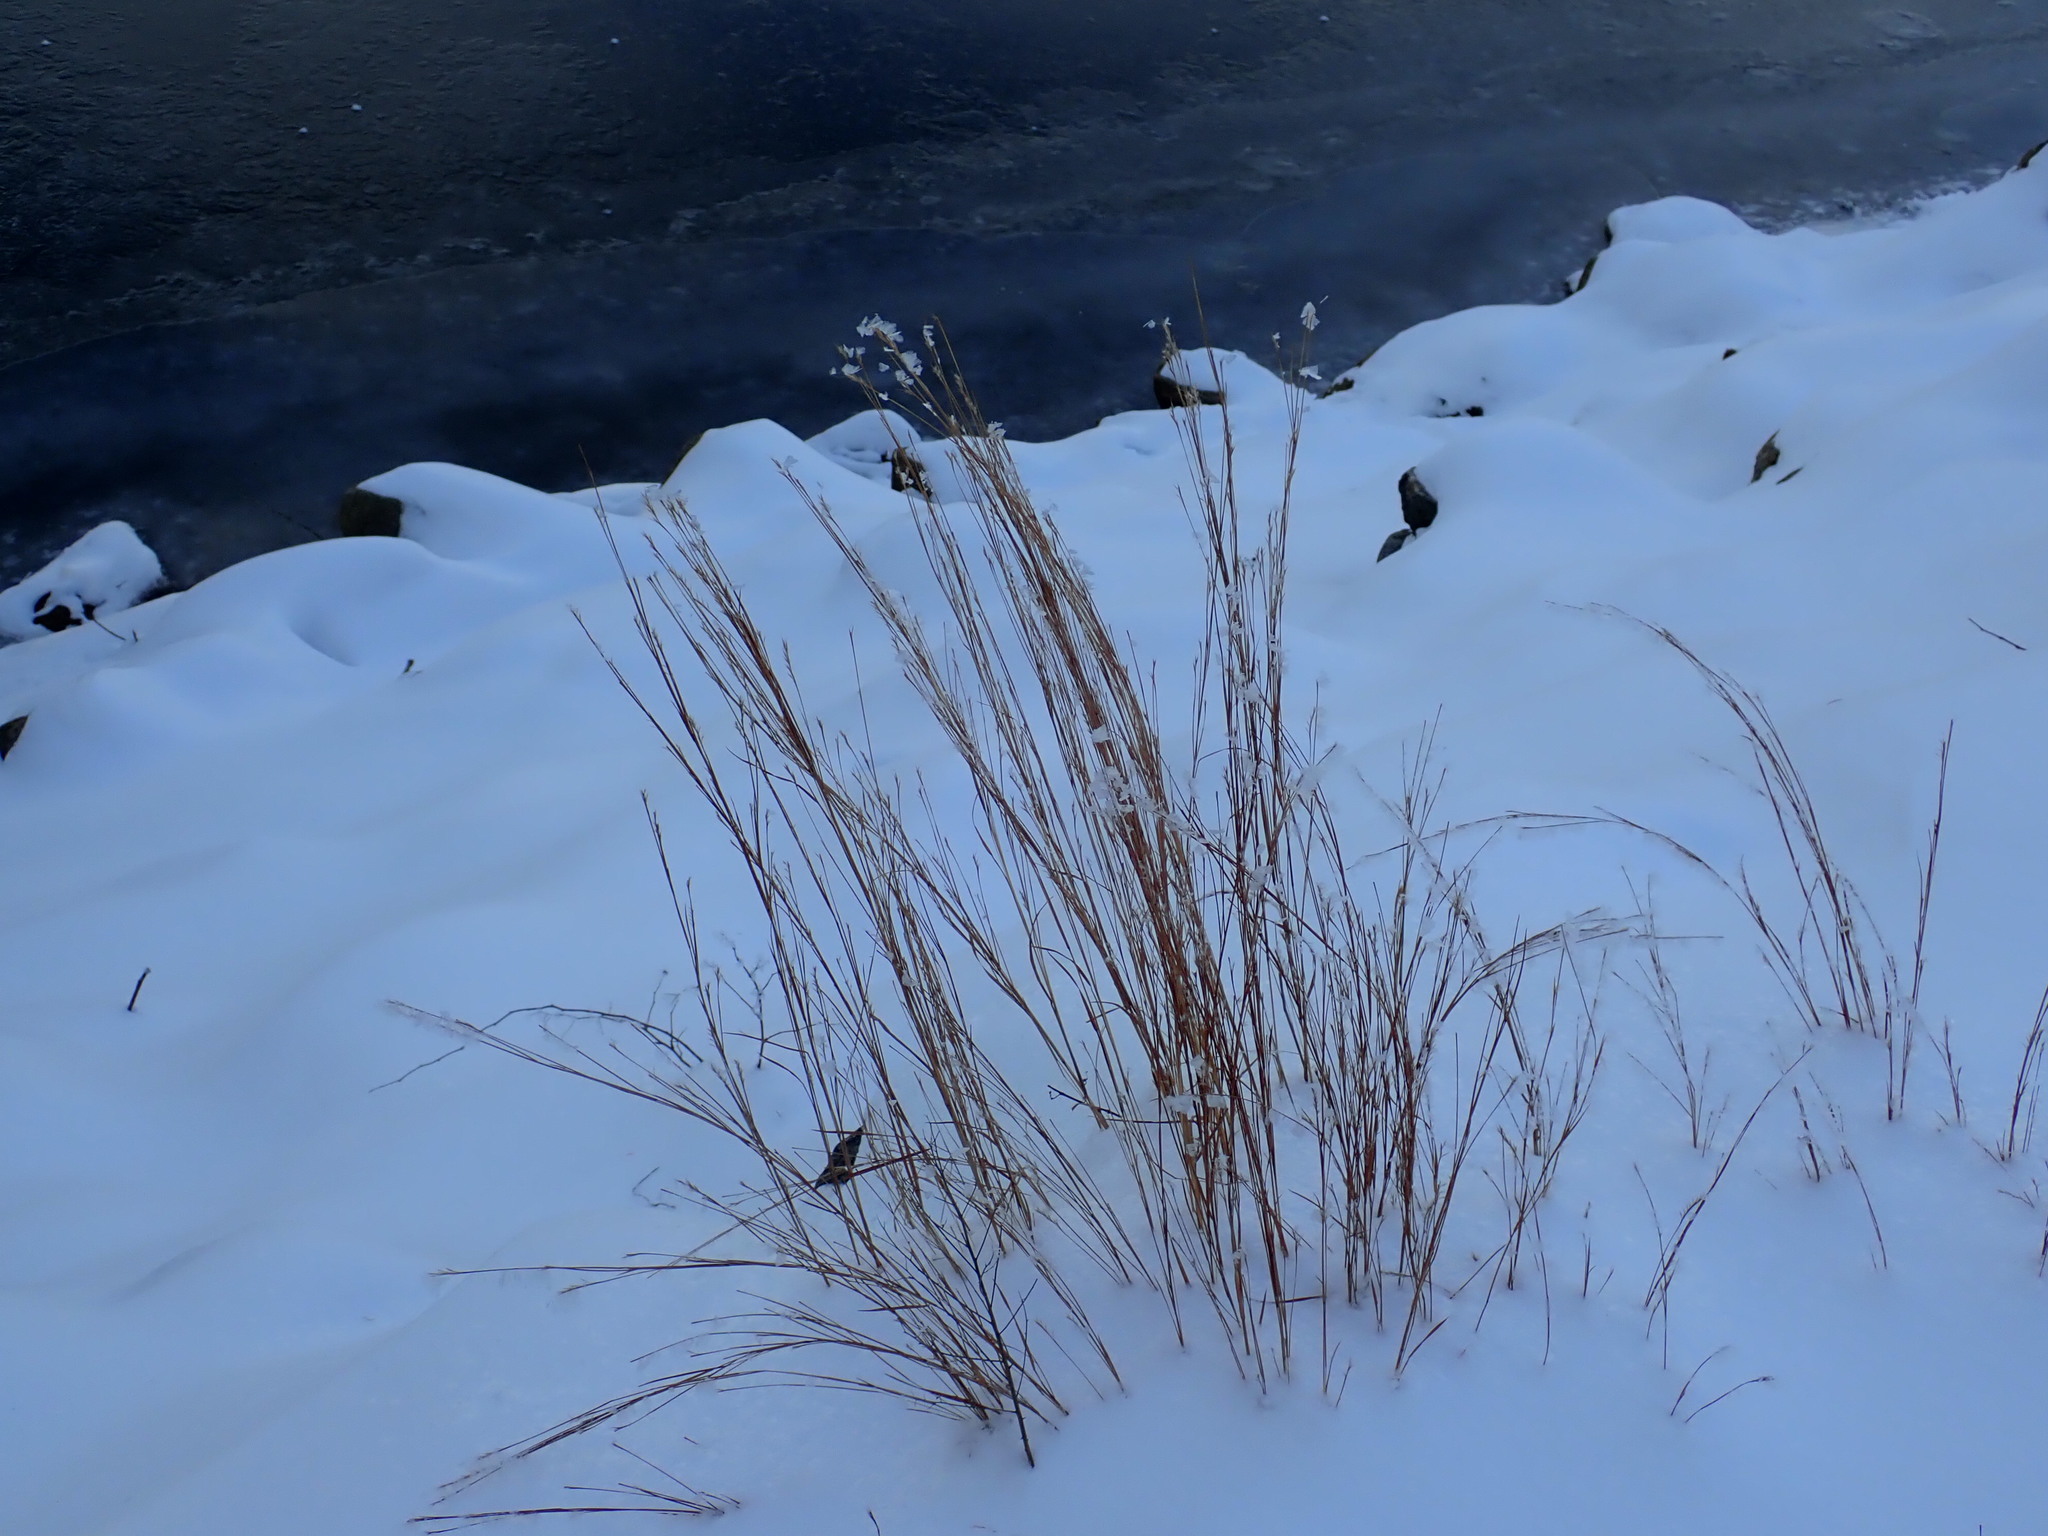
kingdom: Plantae
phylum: Tracheophyta
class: Liliopsida
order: Poales
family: Poaceae
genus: Schizachyrium
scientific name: Schizachyrium scoparium
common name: Little bluestem
